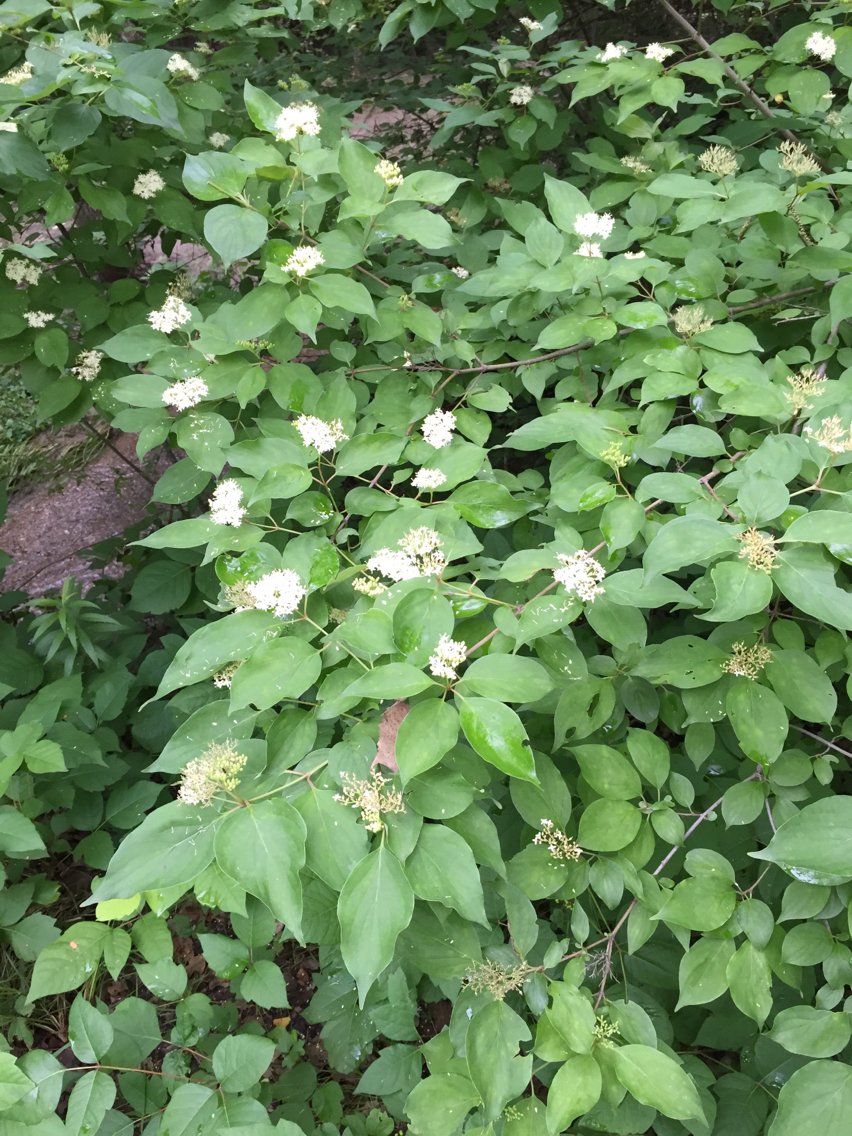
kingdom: Plantae
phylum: Tracheophyta
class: Magnoliopsida
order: Cornales
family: Cornaceae
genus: Cornus
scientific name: Cornus drummondii
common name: Rough-leaf dogwood
